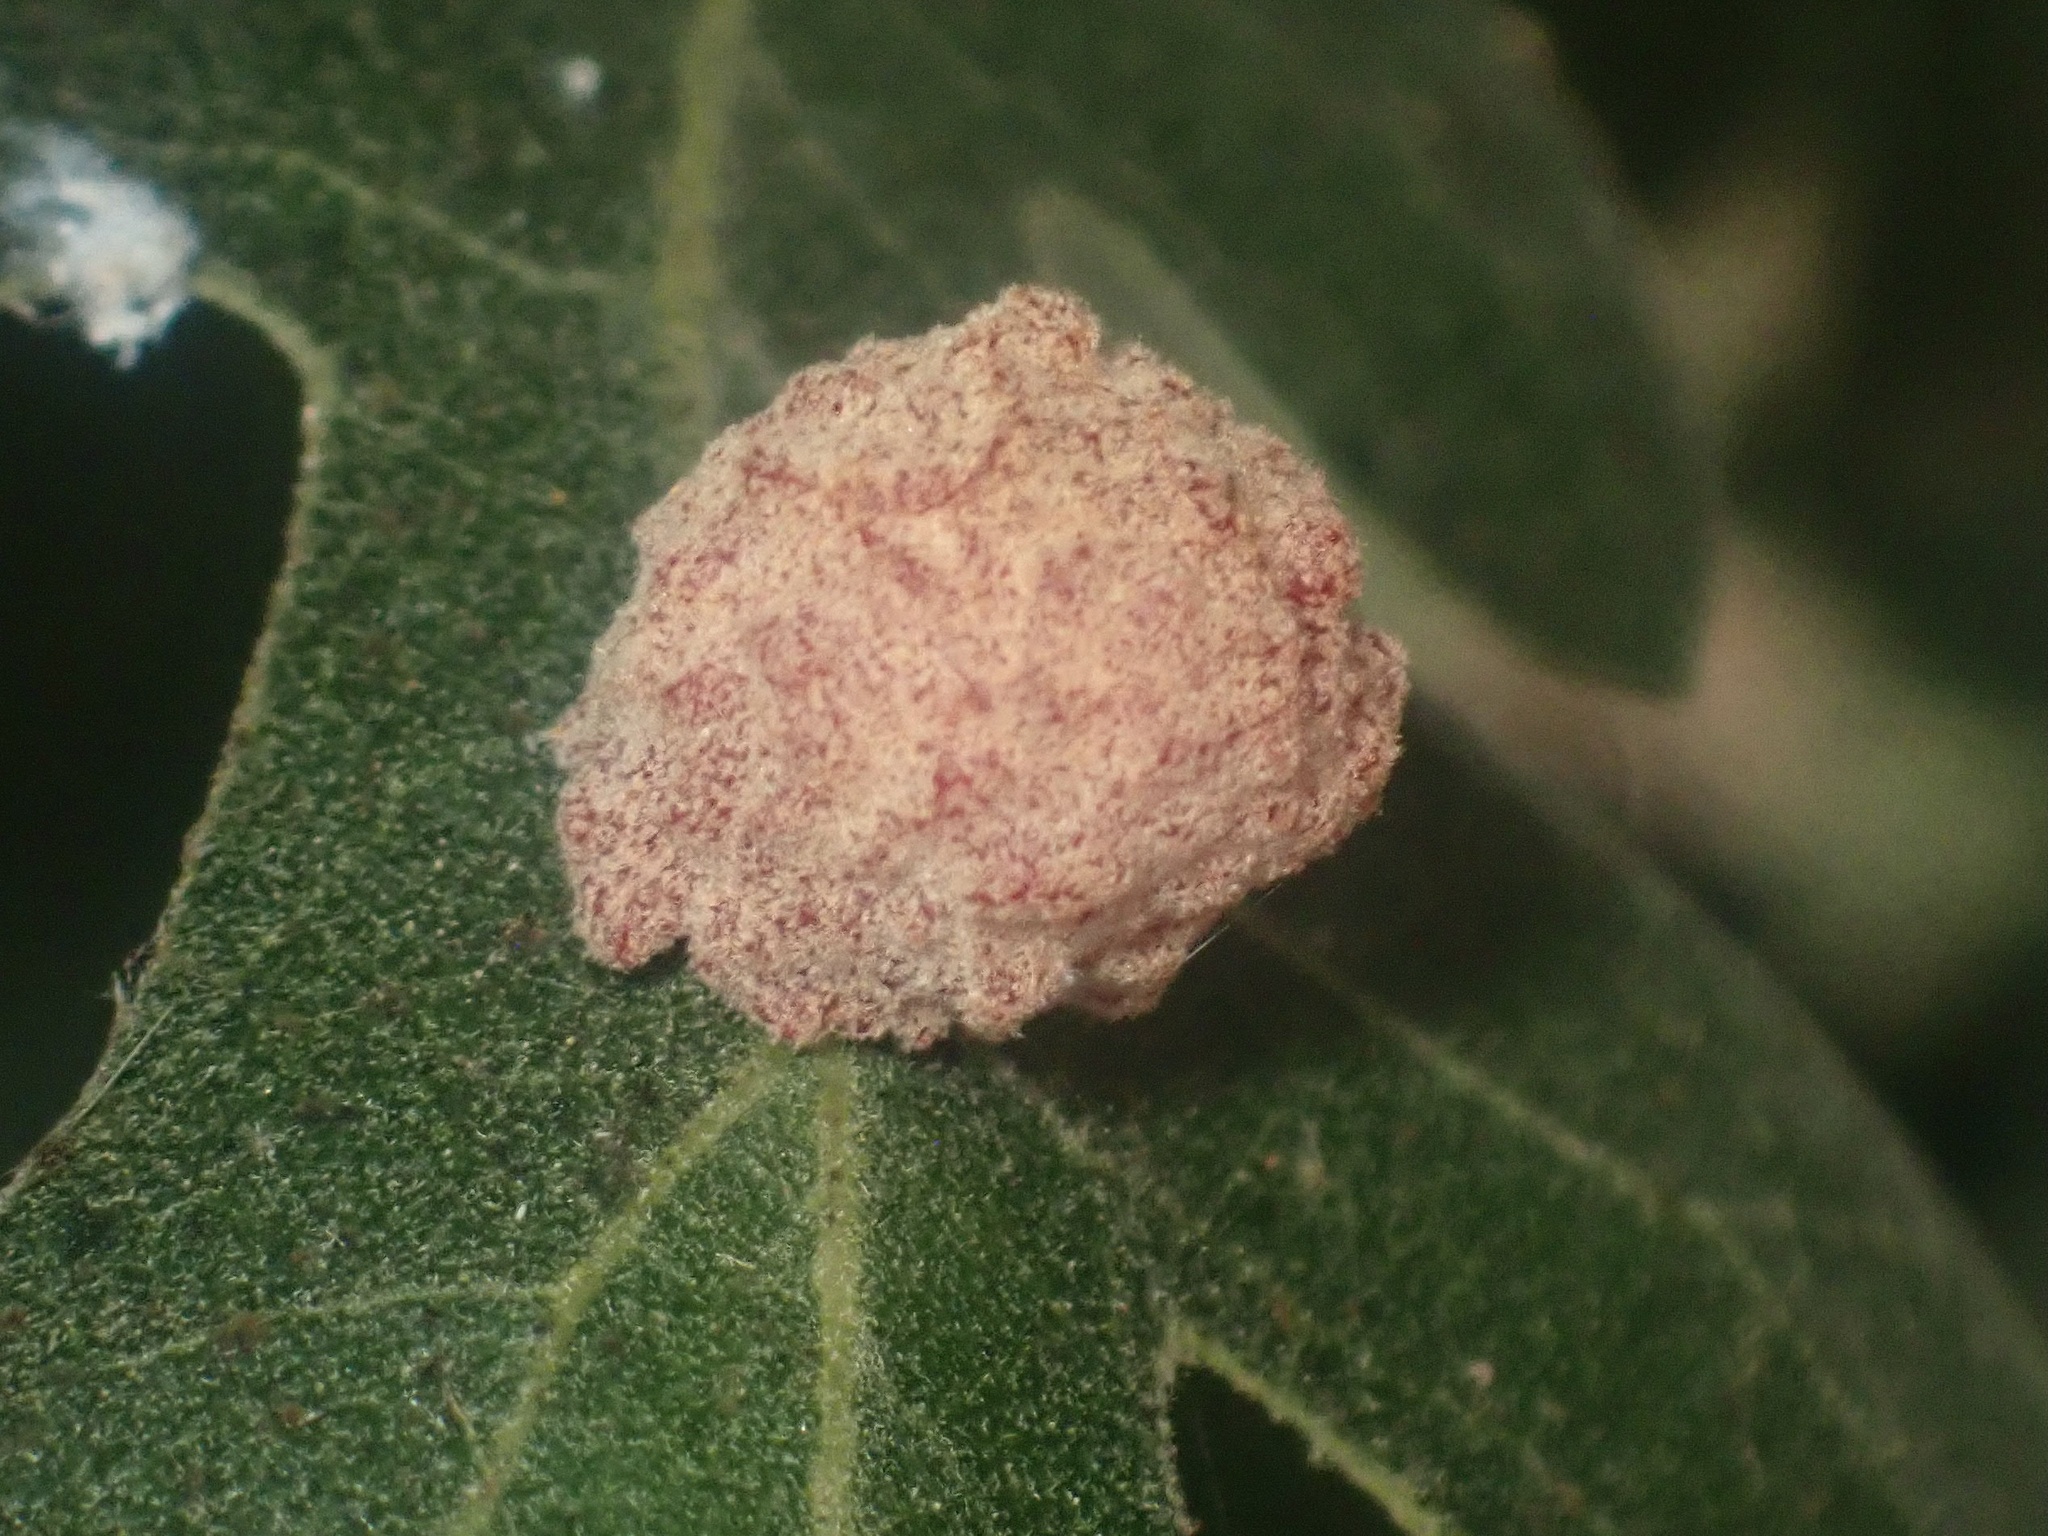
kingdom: Animalia
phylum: Arthropoda
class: Insecta
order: Hymenoptera
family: Cynipidae
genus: Cynips
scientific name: Cynips conspicua
